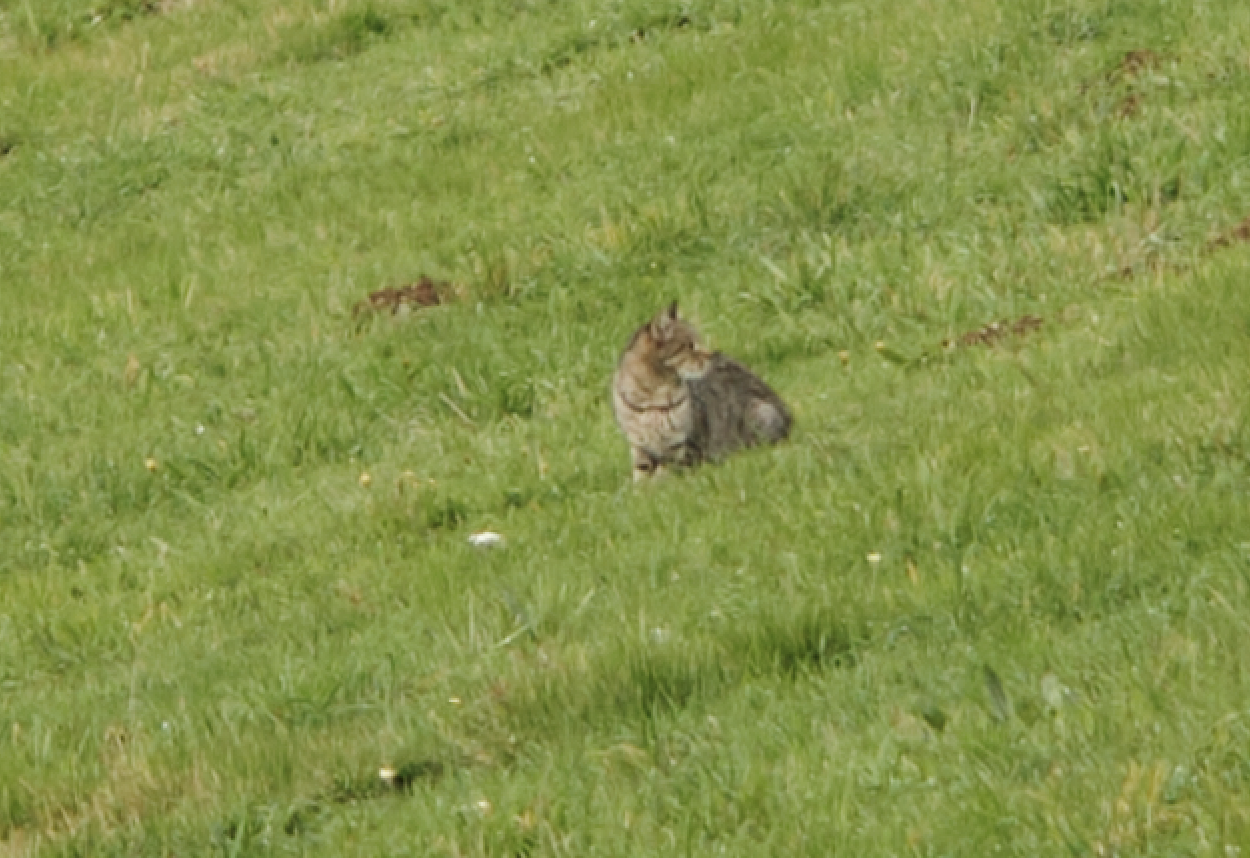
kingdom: Animalia
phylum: Chordata
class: Mammalia
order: Carnivora
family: Felidae
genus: Felis
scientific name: Felis catus
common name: Domestic cat
